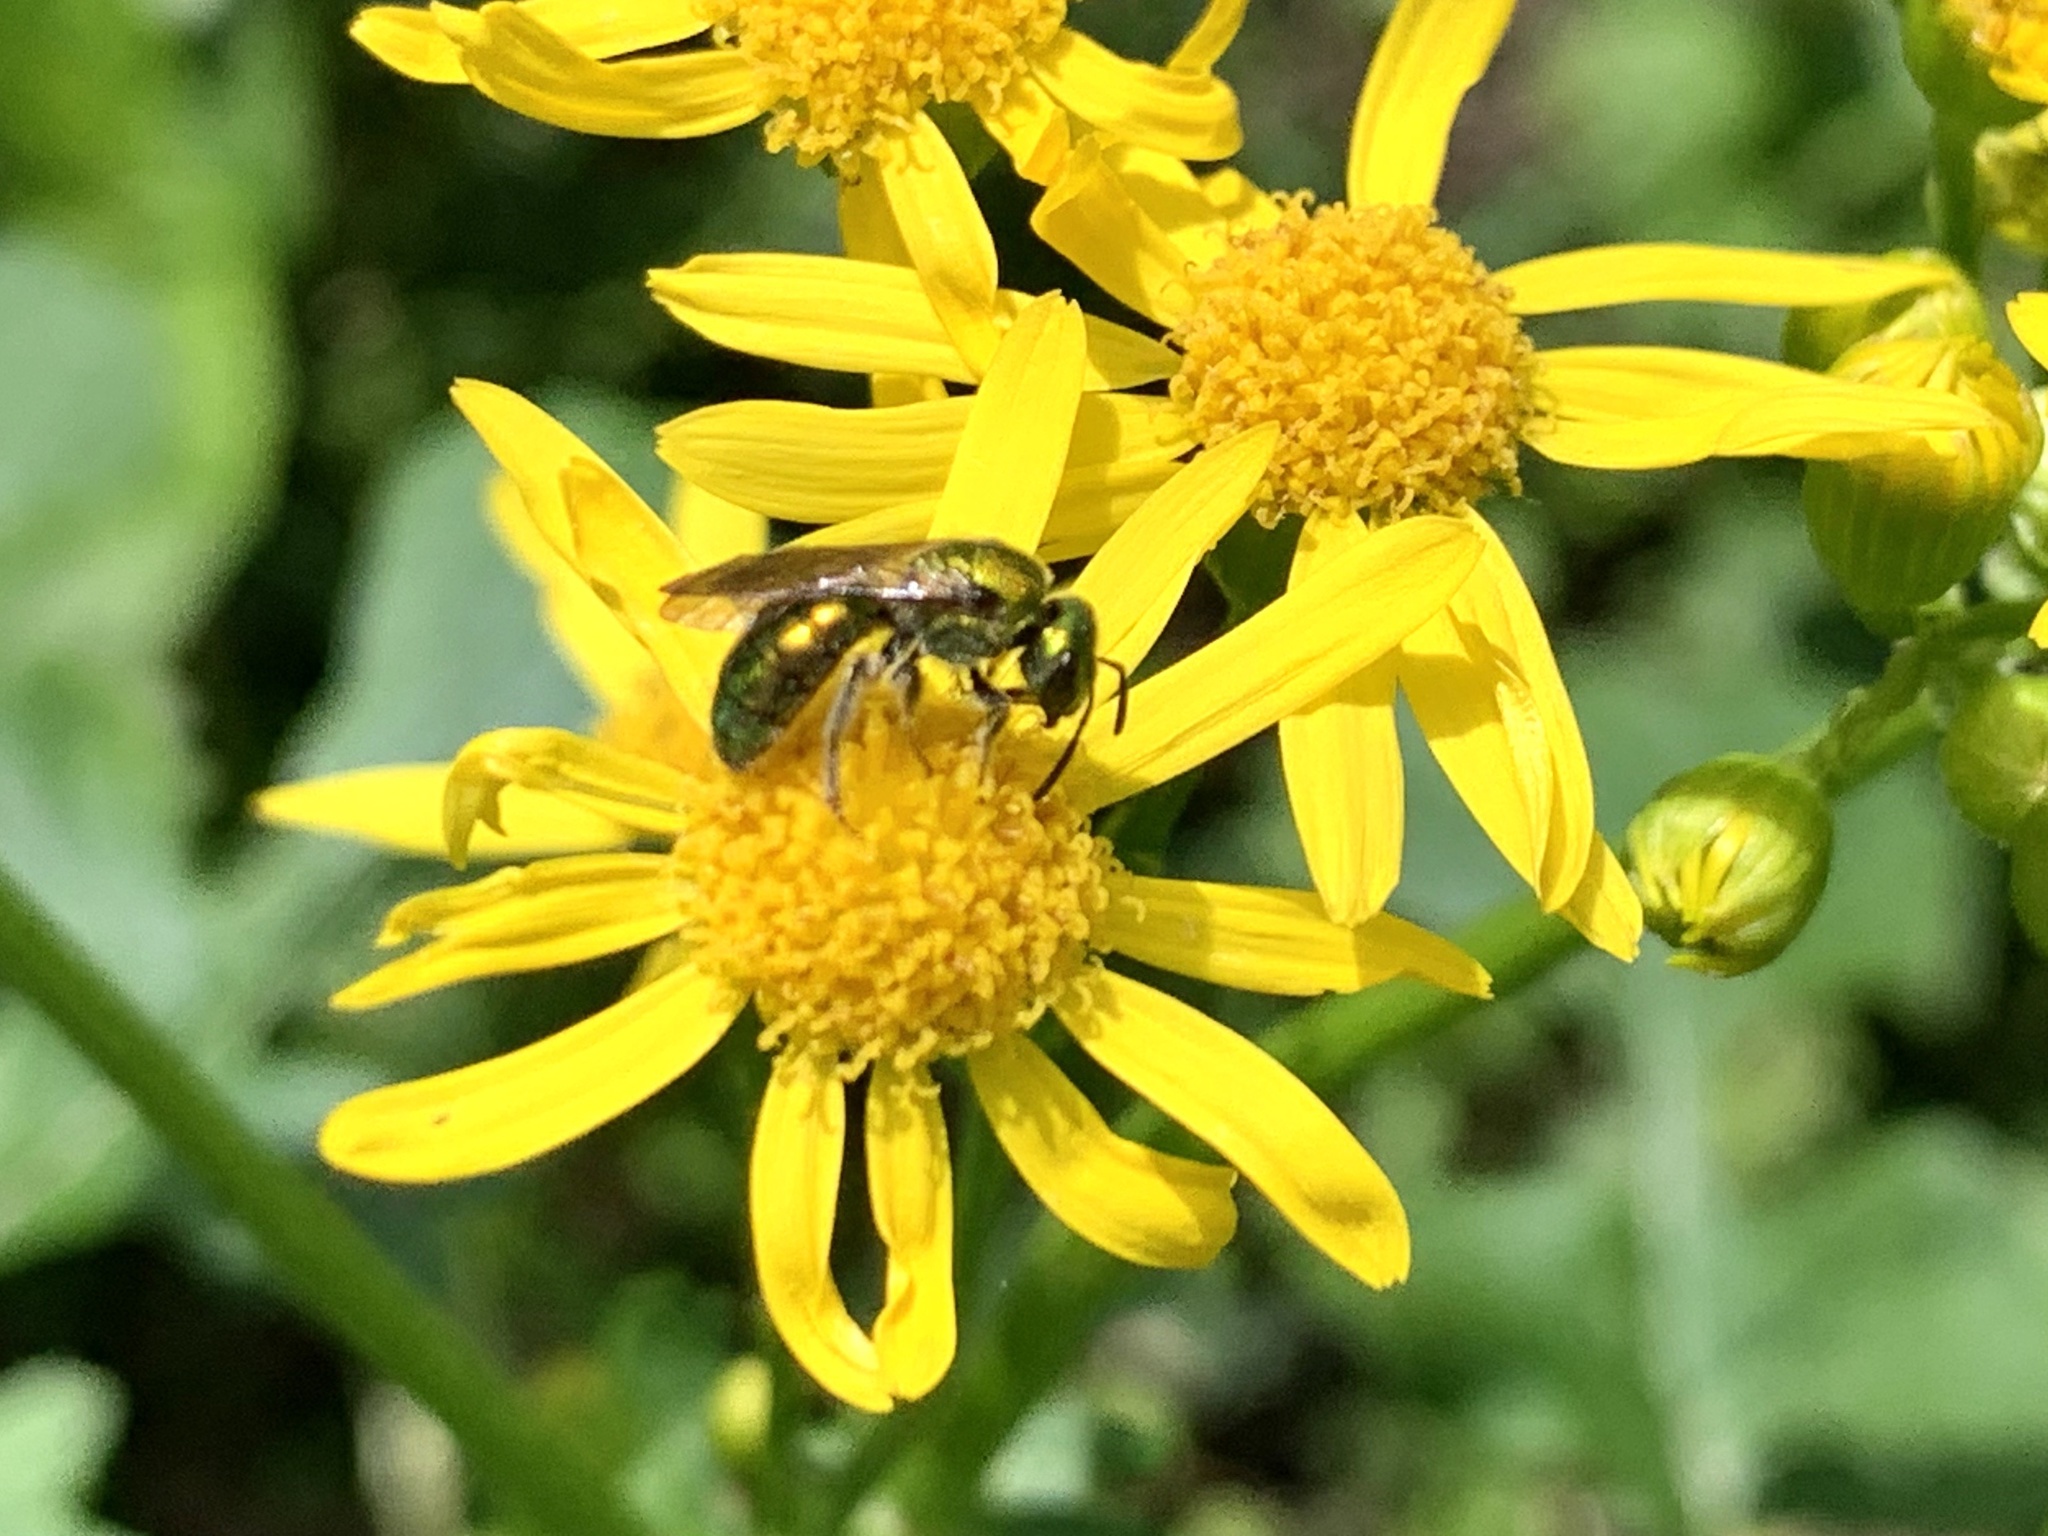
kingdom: Animalia
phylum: Arthropoda
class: Insecta
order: Hymenoptera
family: Halictidae
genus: Augochlora
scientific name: Augochlora pura
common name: Pure green sweat bee
